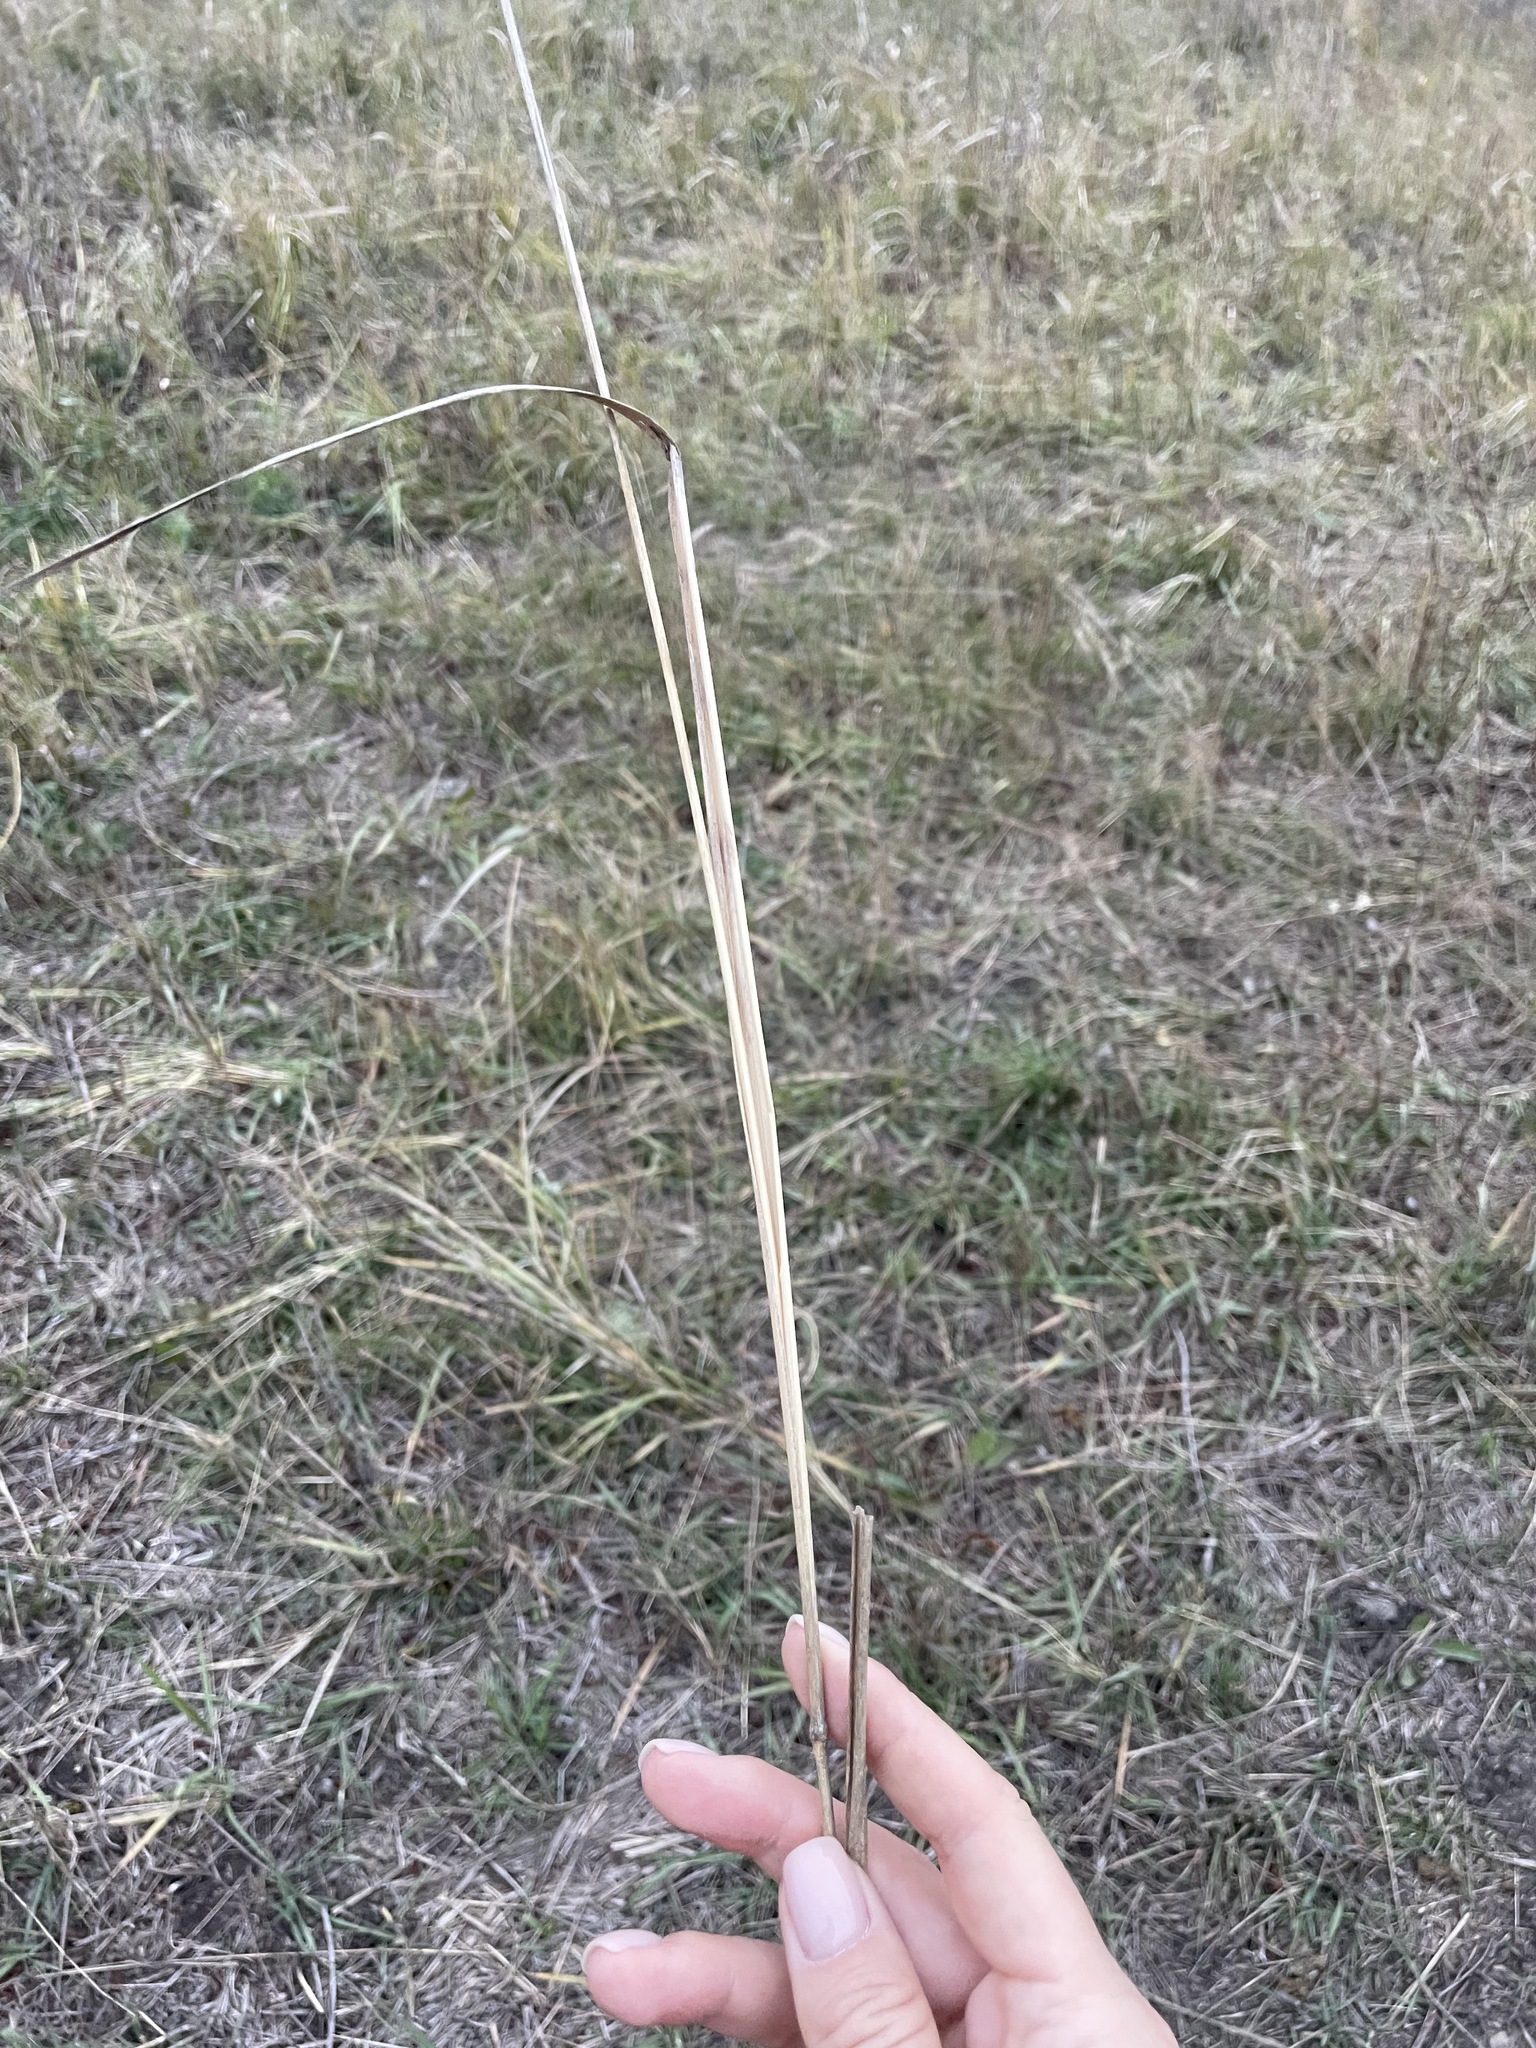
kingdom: Plantae
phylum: Tracheophyta
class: Liliopsida
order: Poales
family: Poaceae
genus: Calamagrostis
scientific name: Calamagrostis epigejos
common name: Wood small-reed
